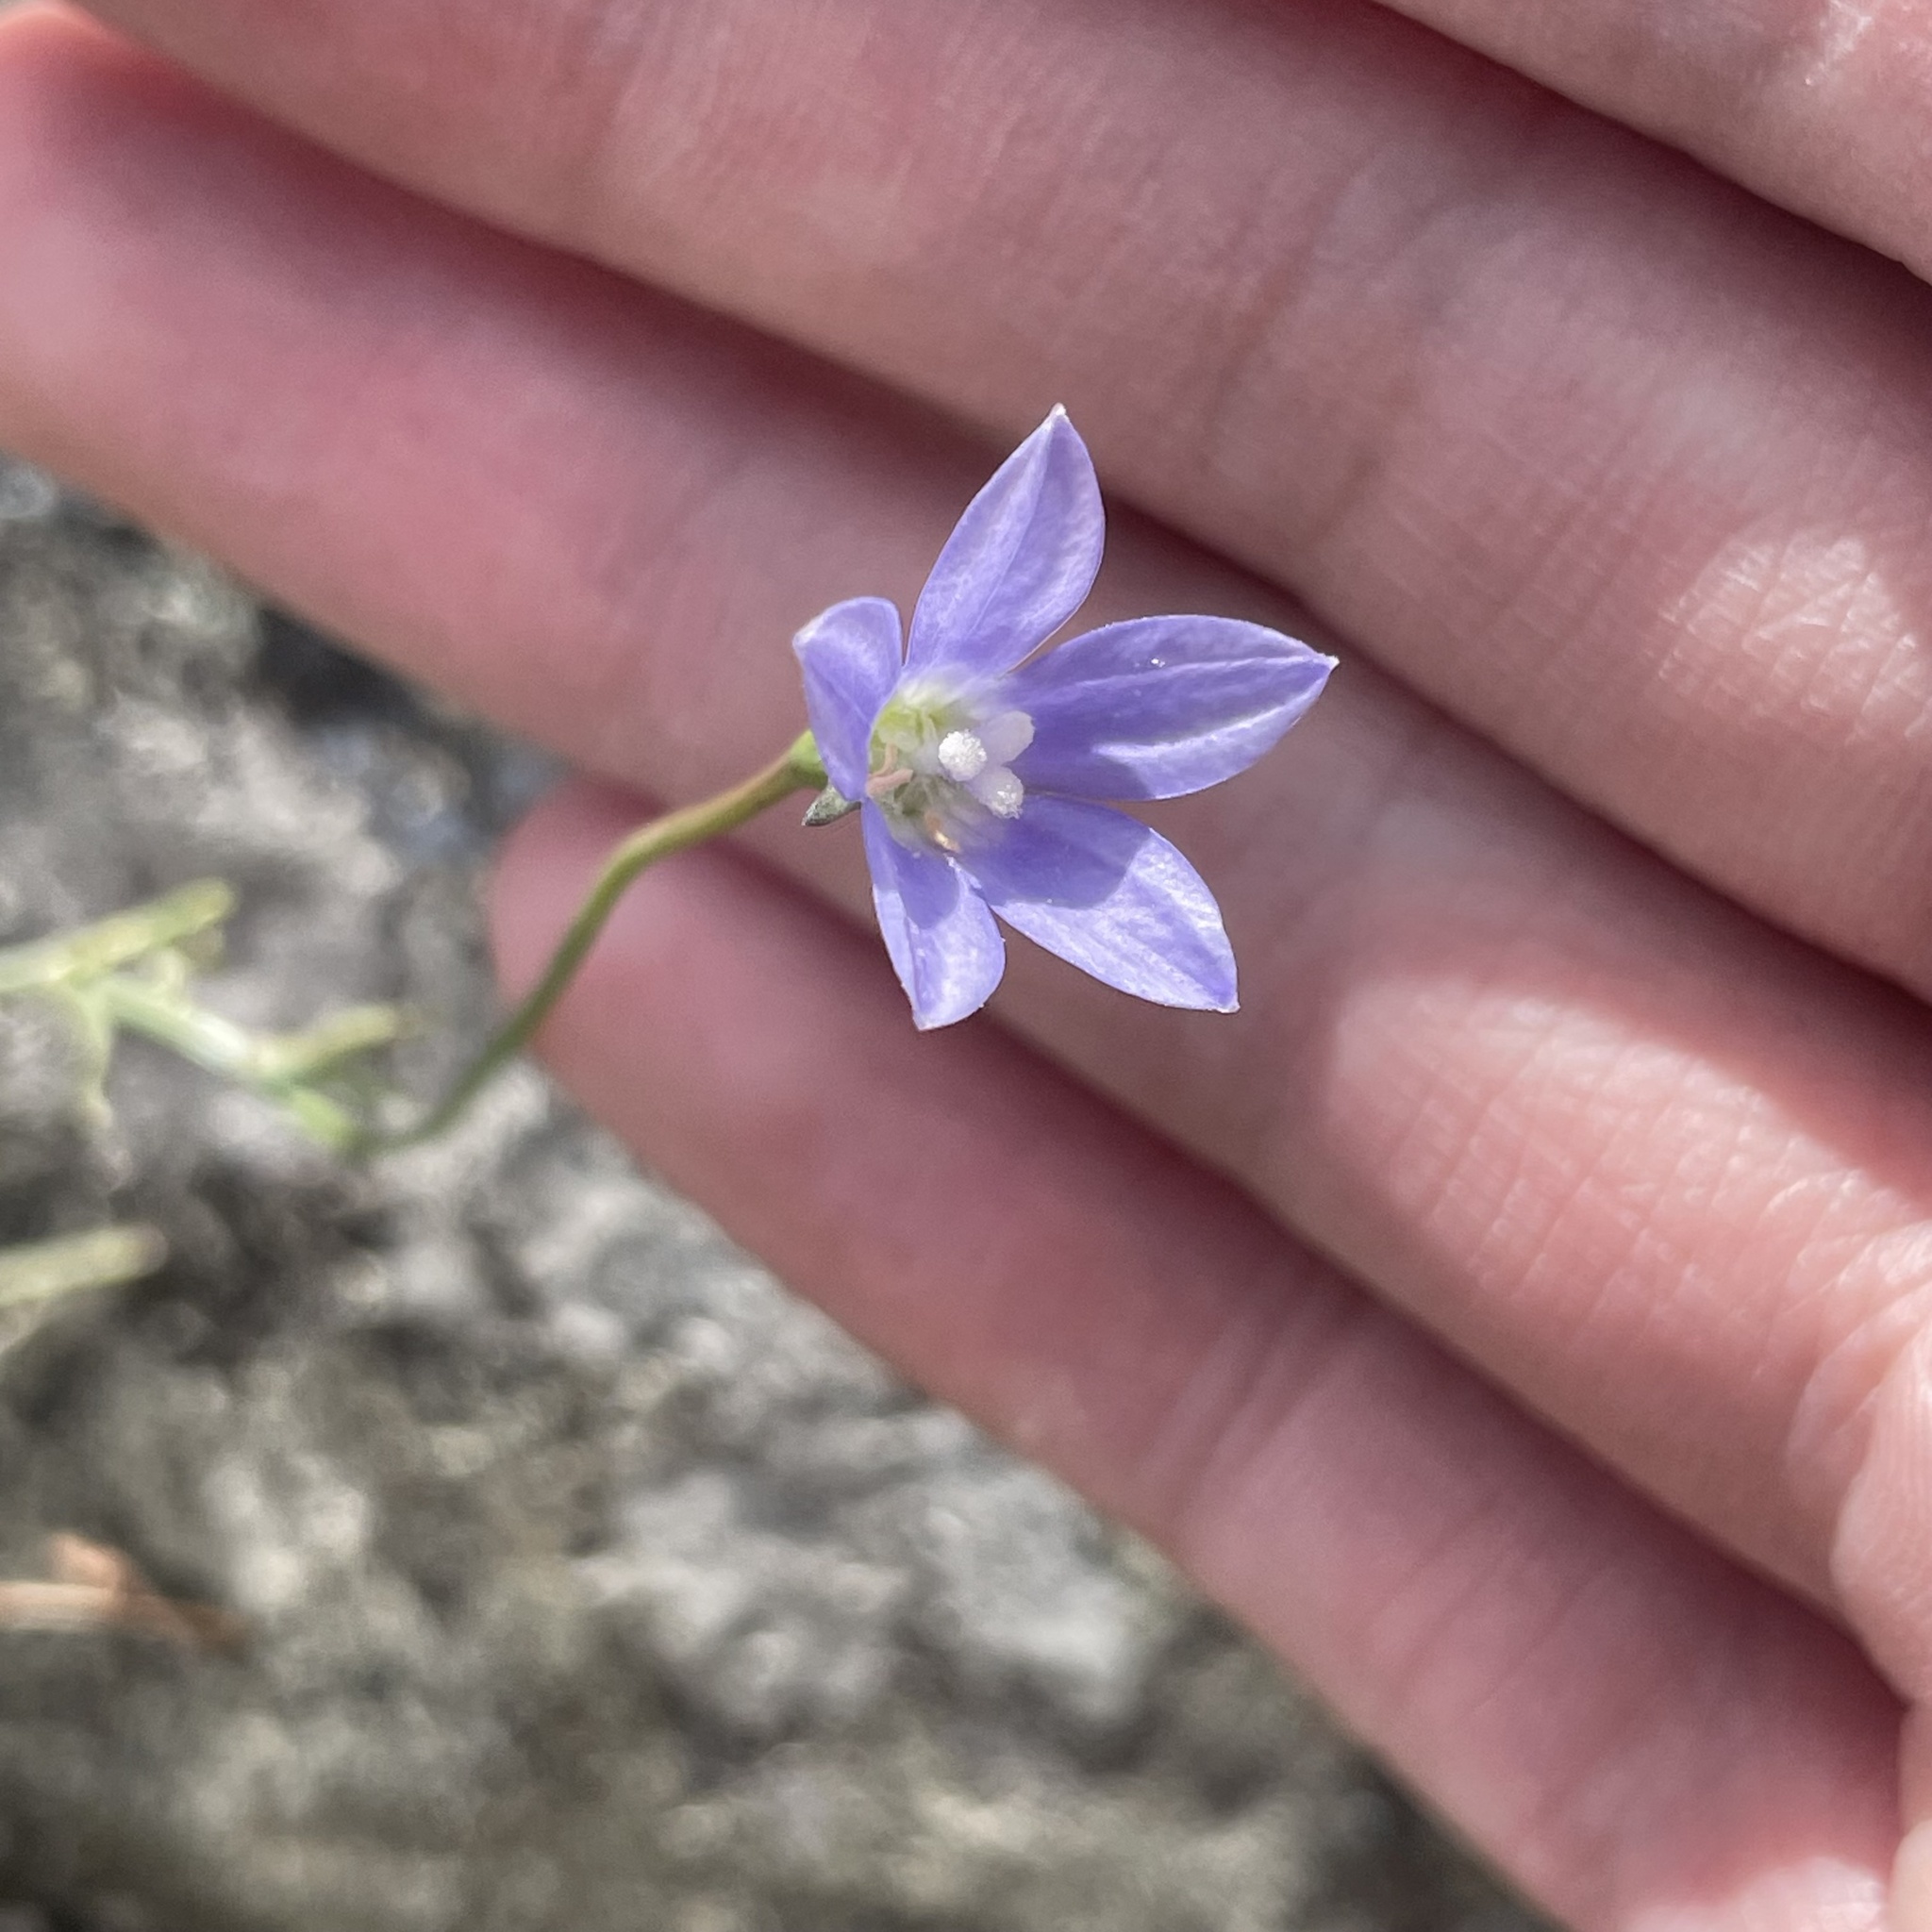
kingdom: Plantae
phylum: Tracheophyta
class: Magnoliopsida
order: Asterales
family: Campanulaceae
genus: Wahlenbergia
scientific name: Wahlenbergia marginata
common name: Southern rockbell
